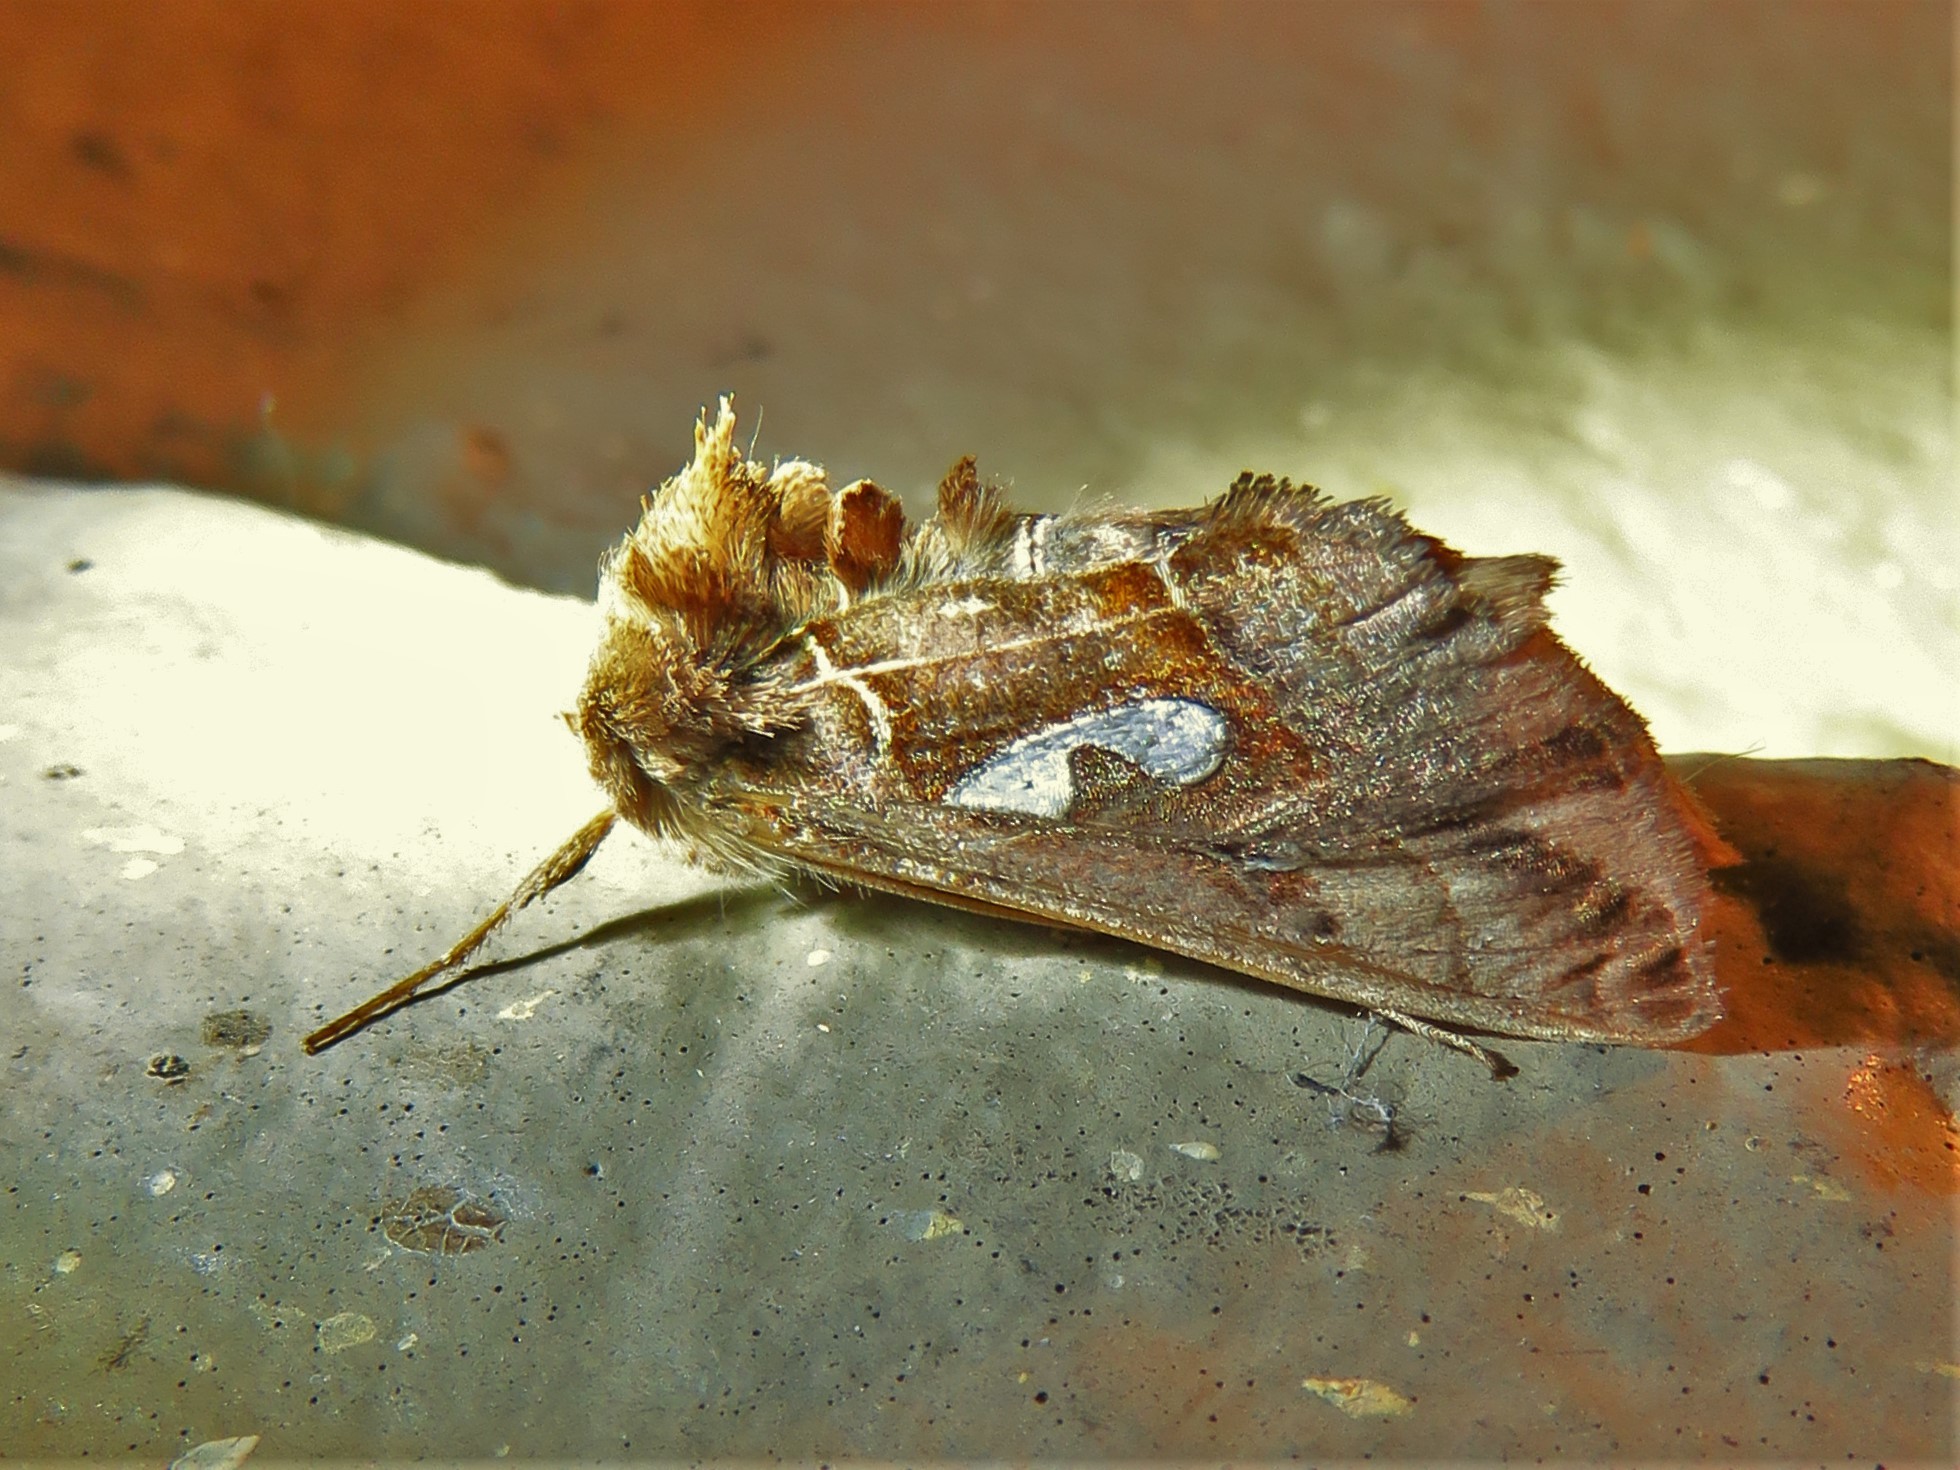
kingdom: Animalia
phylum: Arthropoda
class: Insecta
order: Lepidoptera
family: Noctuidae
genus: Megalographa
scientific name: Megalographa biloba
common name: Cutworm
